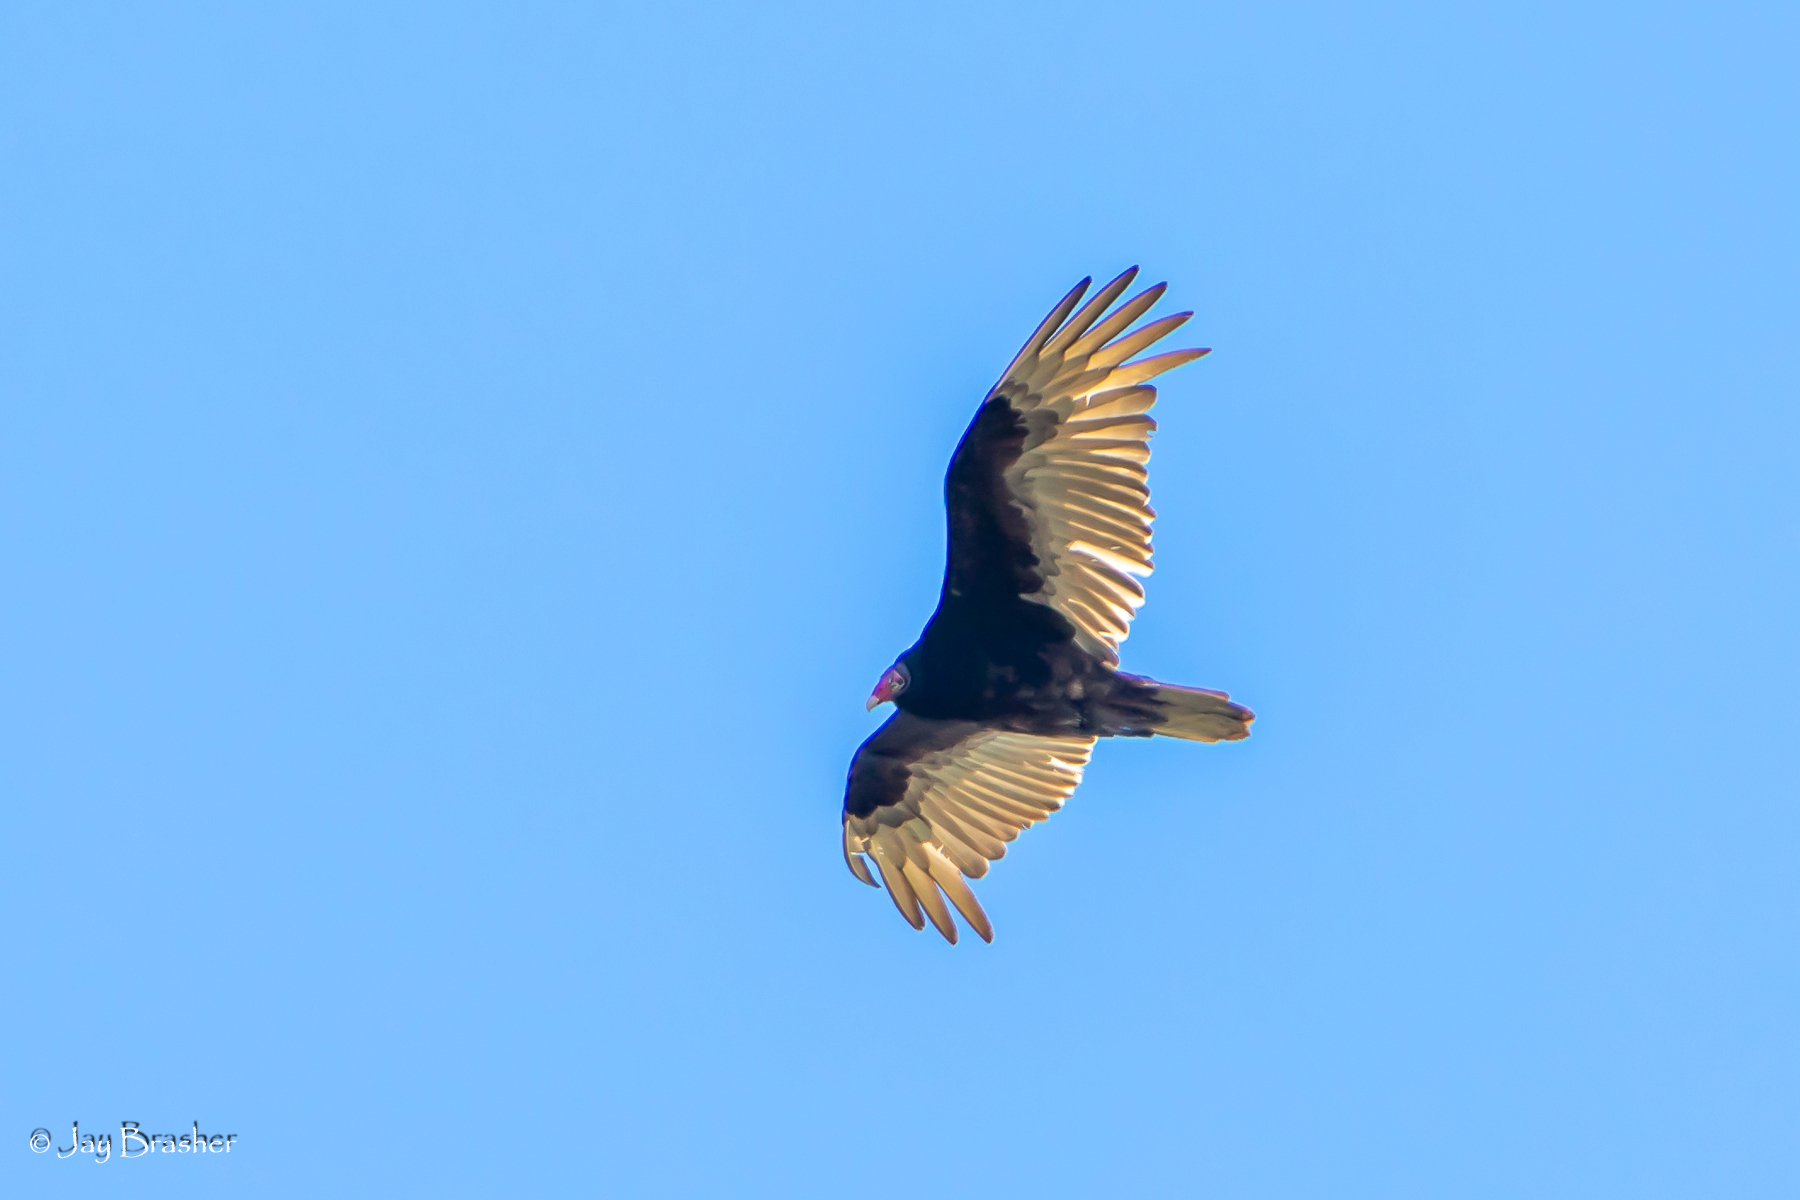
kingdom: Animalia
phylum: Chordata
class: Aves
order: Accipitriformes
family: Cathartidae
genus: Cathartes
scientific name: Cathartes aura
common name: Turkey vulture
